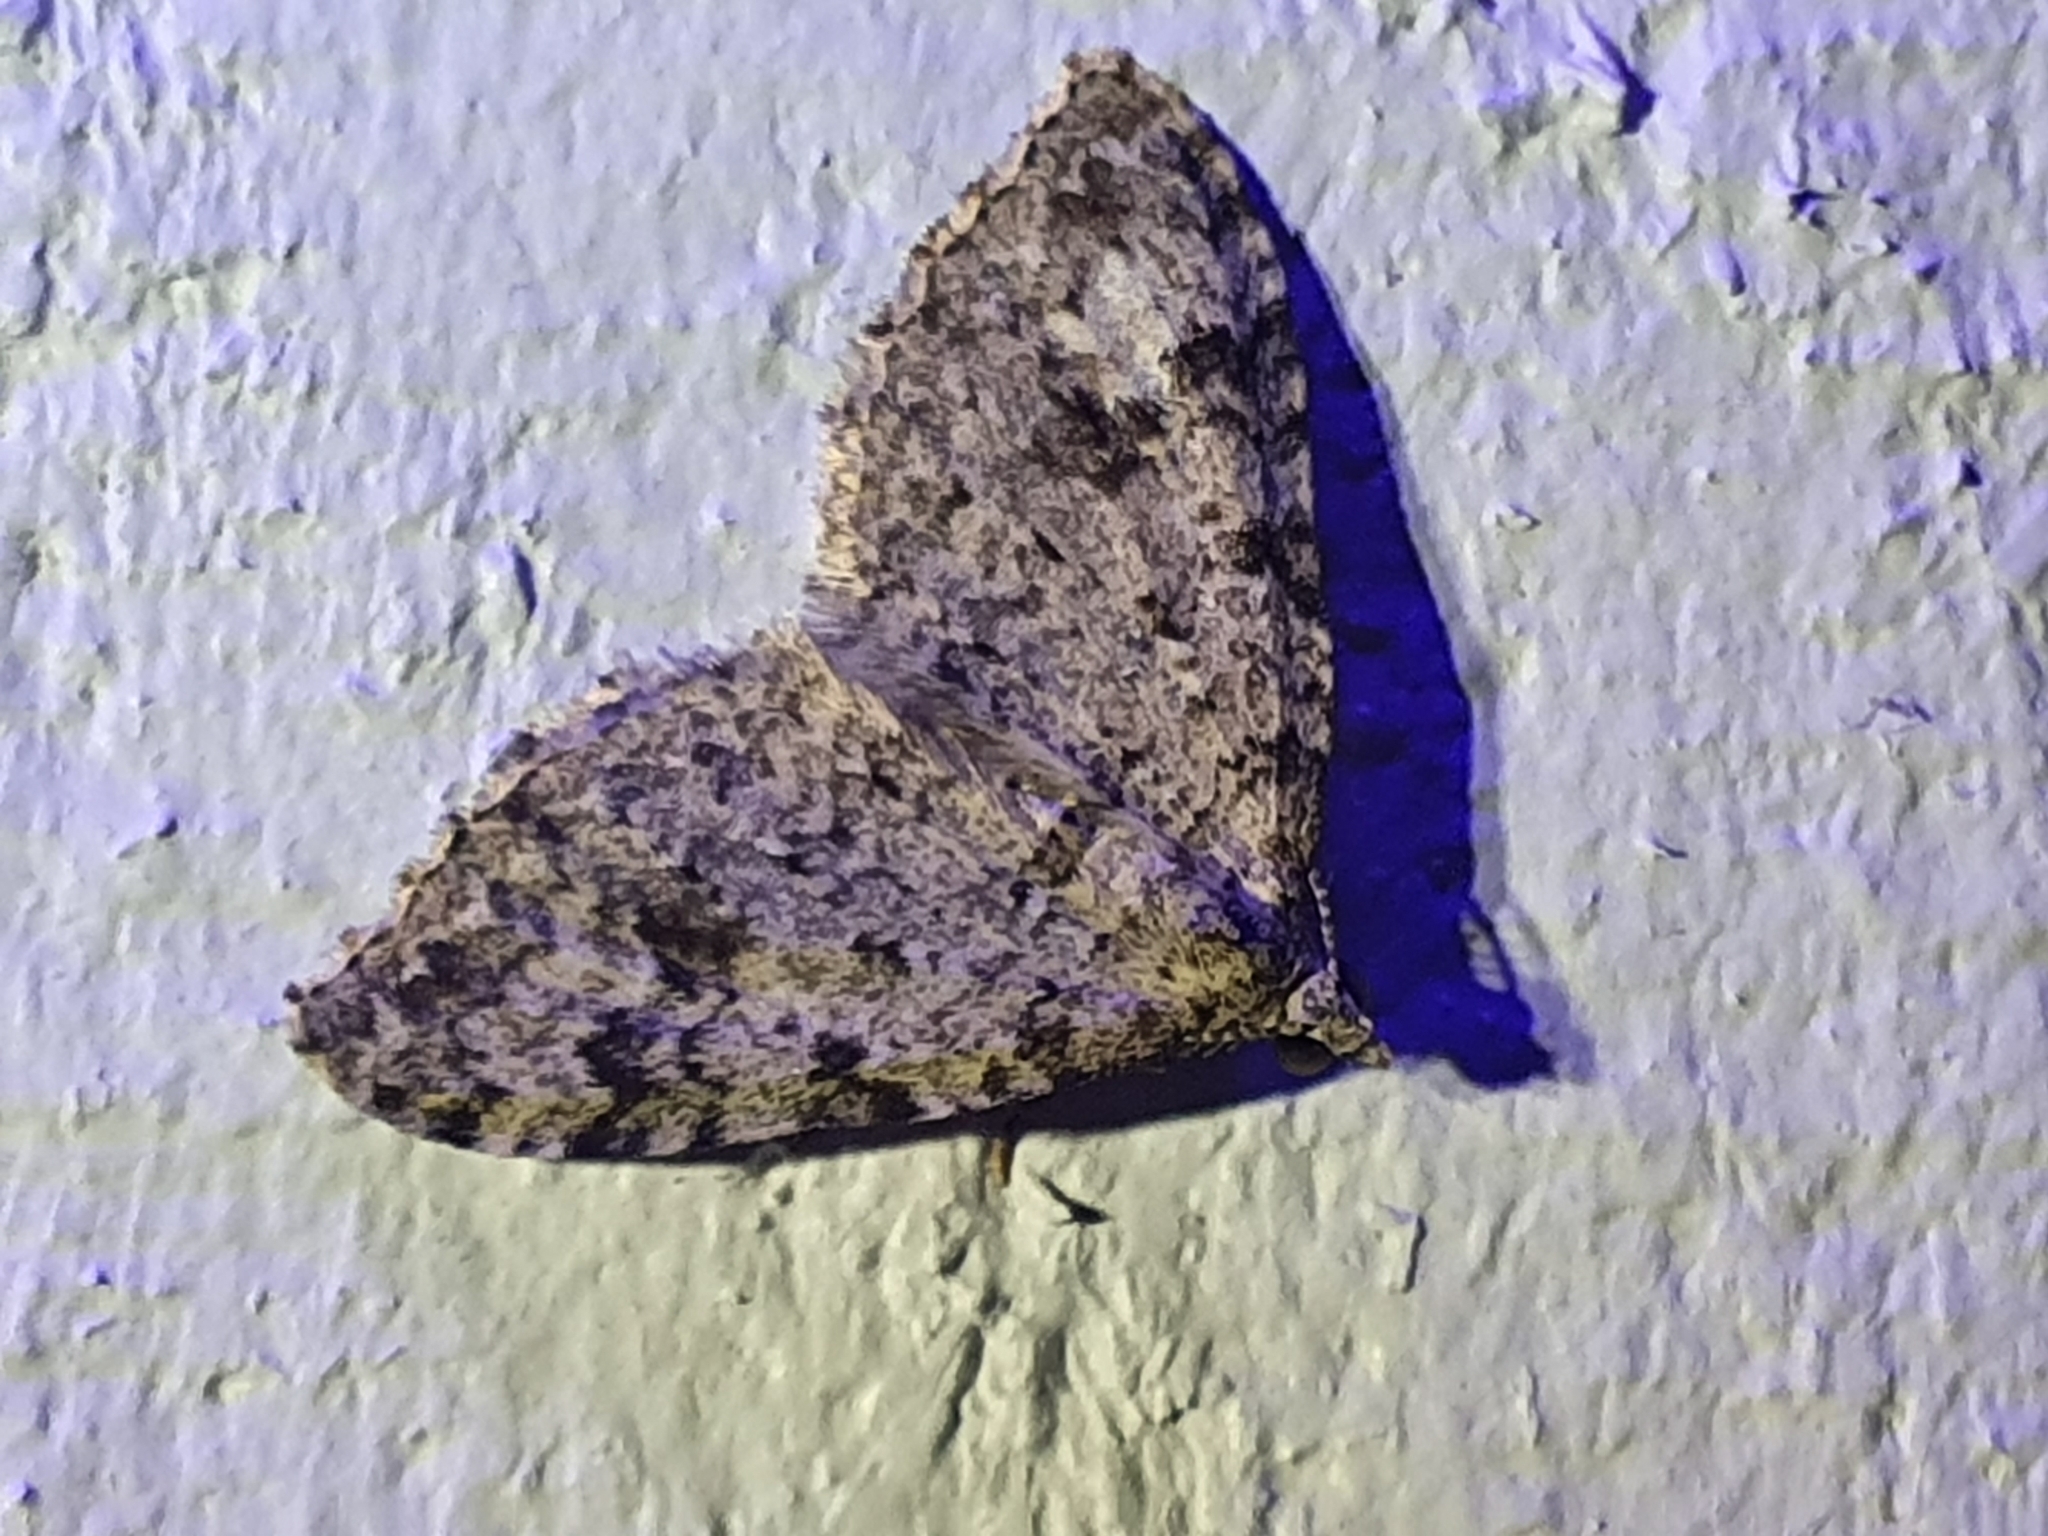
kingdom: Animalia
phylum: Arthropoda
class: Insecta
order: Lepidoptera
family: Geometridae
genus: Helastia
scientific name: Helastia cinerearia
